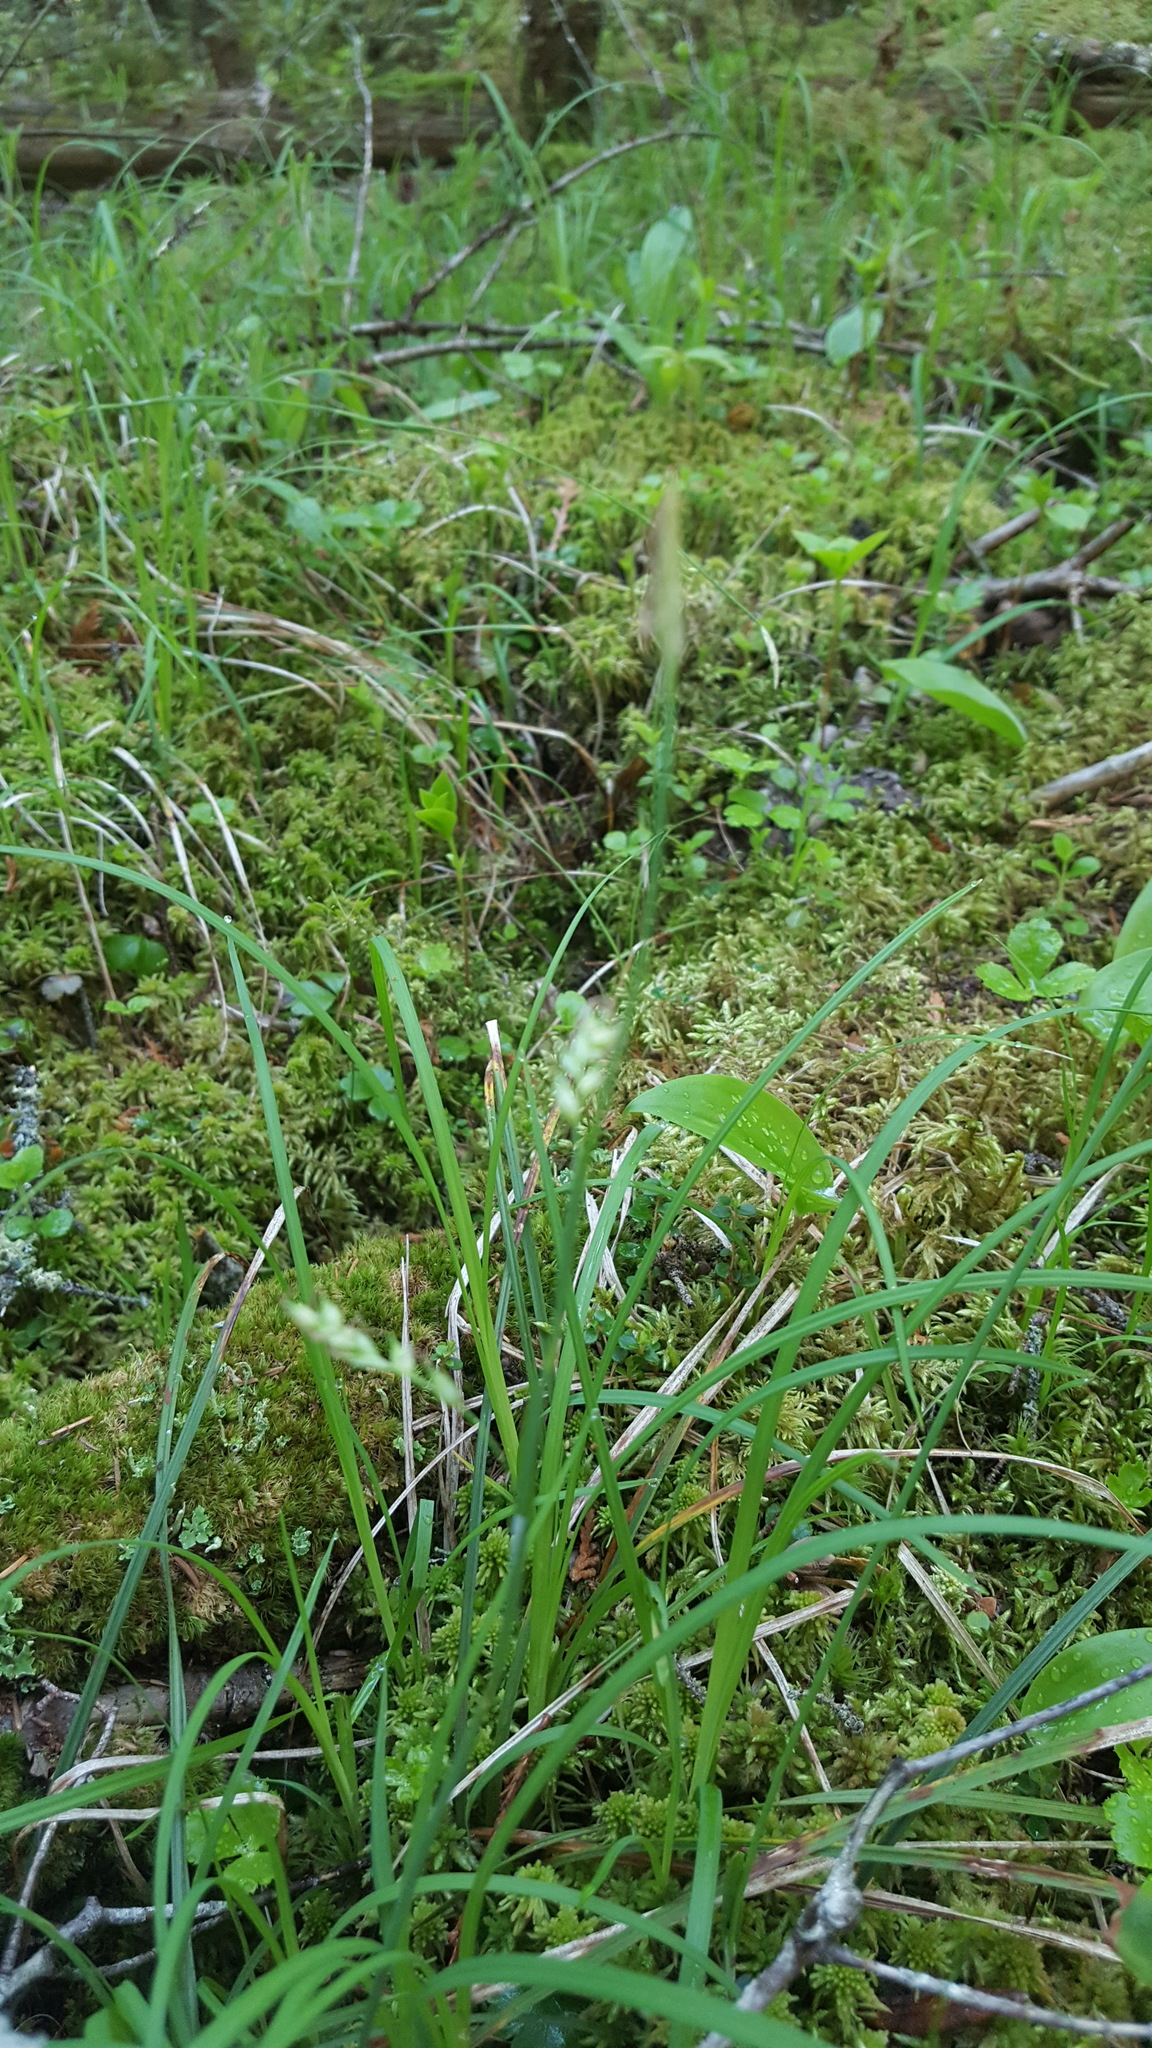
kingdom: Plantae
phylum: Tracheophyta
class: Liliopsida
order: Poales
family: Cyperaceae
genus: Carex
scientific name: Carex vaginata
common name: Sheathed sedge
